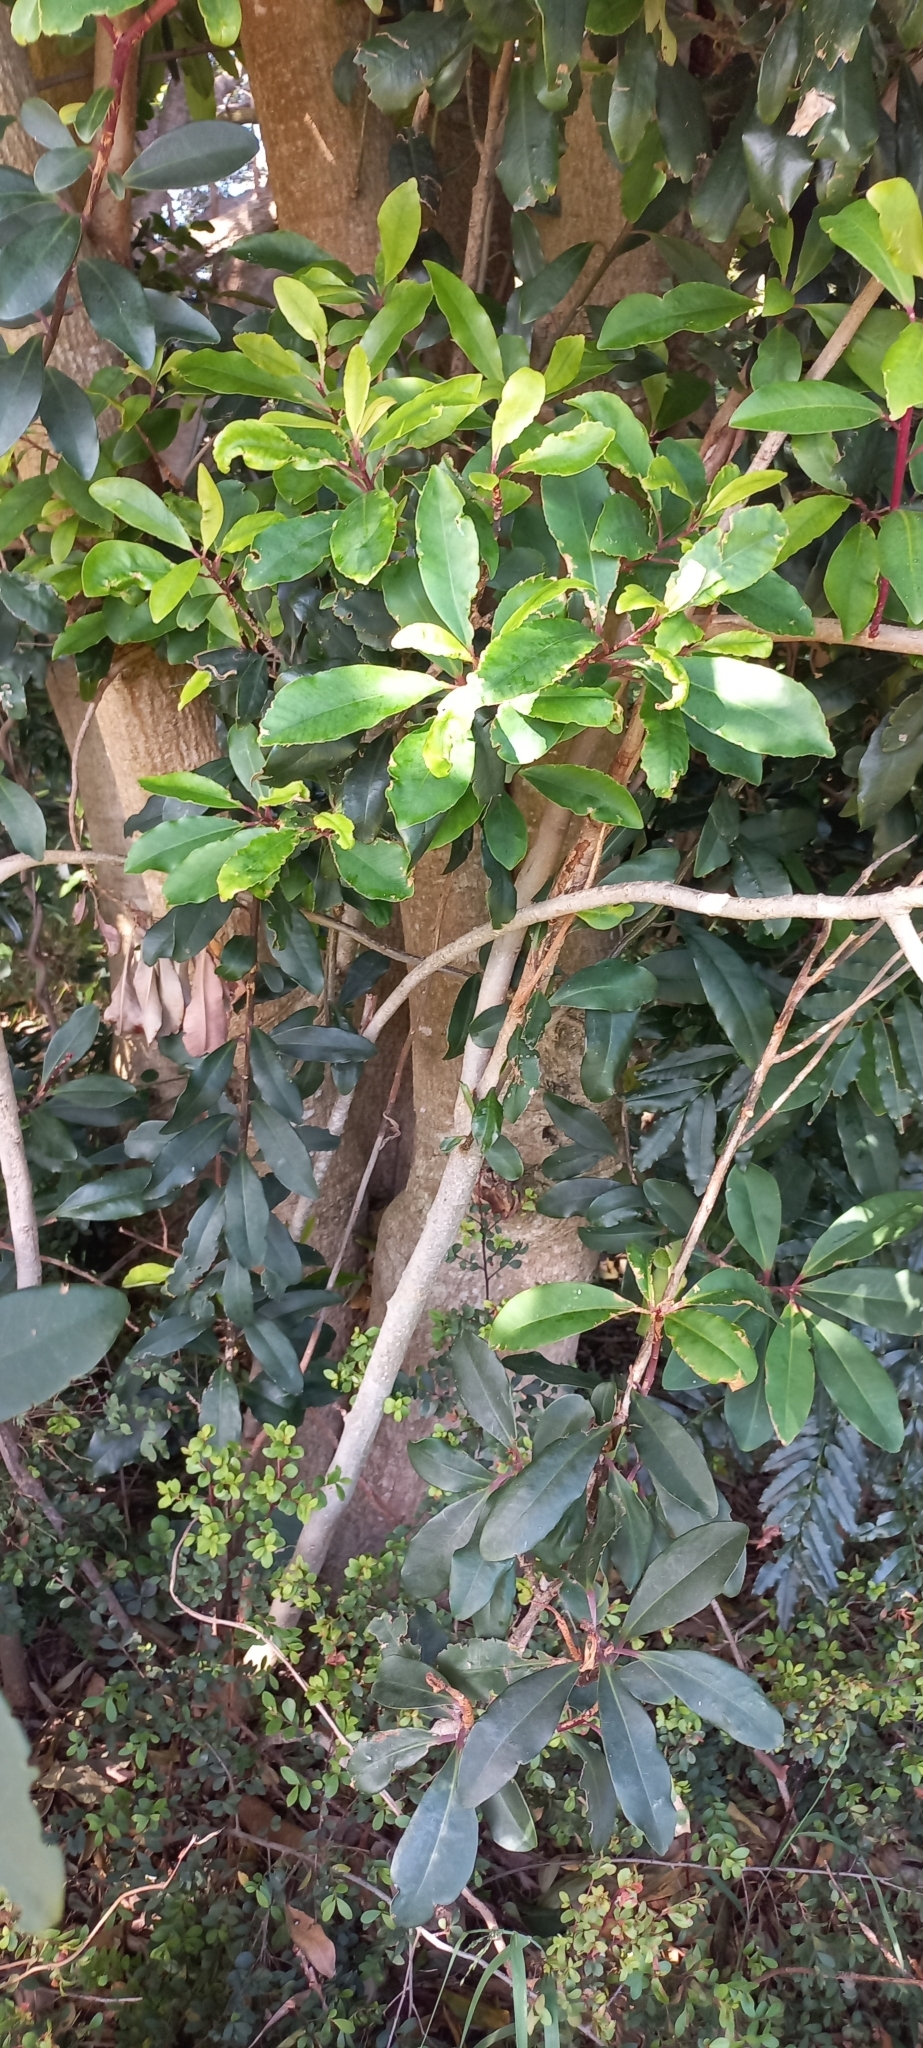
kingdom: Plantae
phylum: Tracheophyta
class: Magnoliopsida
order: Ericales
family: Primulaceae
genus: Myrsine
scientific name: Myrsine melanophloeos
